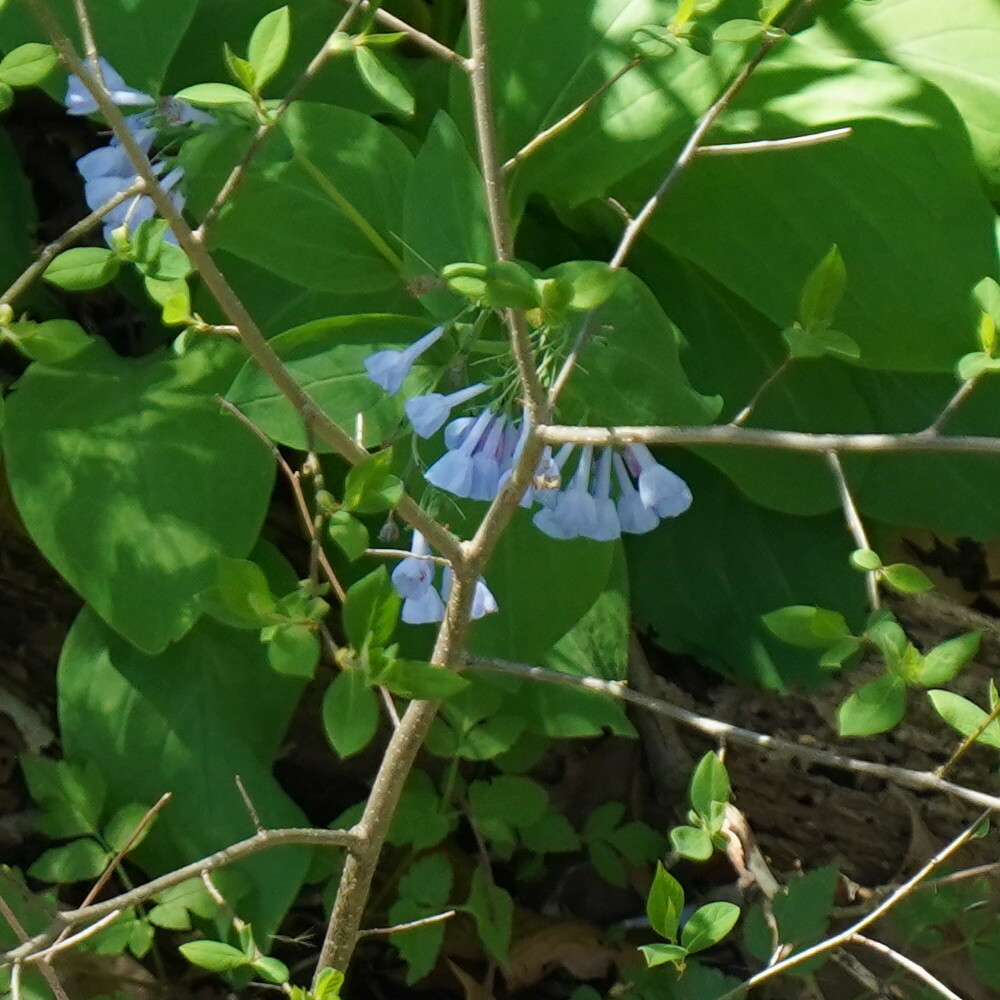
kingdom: Plantae
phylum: Tracheophyta
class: Magnoliopsida
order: Boraginales
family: Boraginaceae
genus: Mertensia
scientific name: Mertensia virginica
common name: Virginia bluebells
